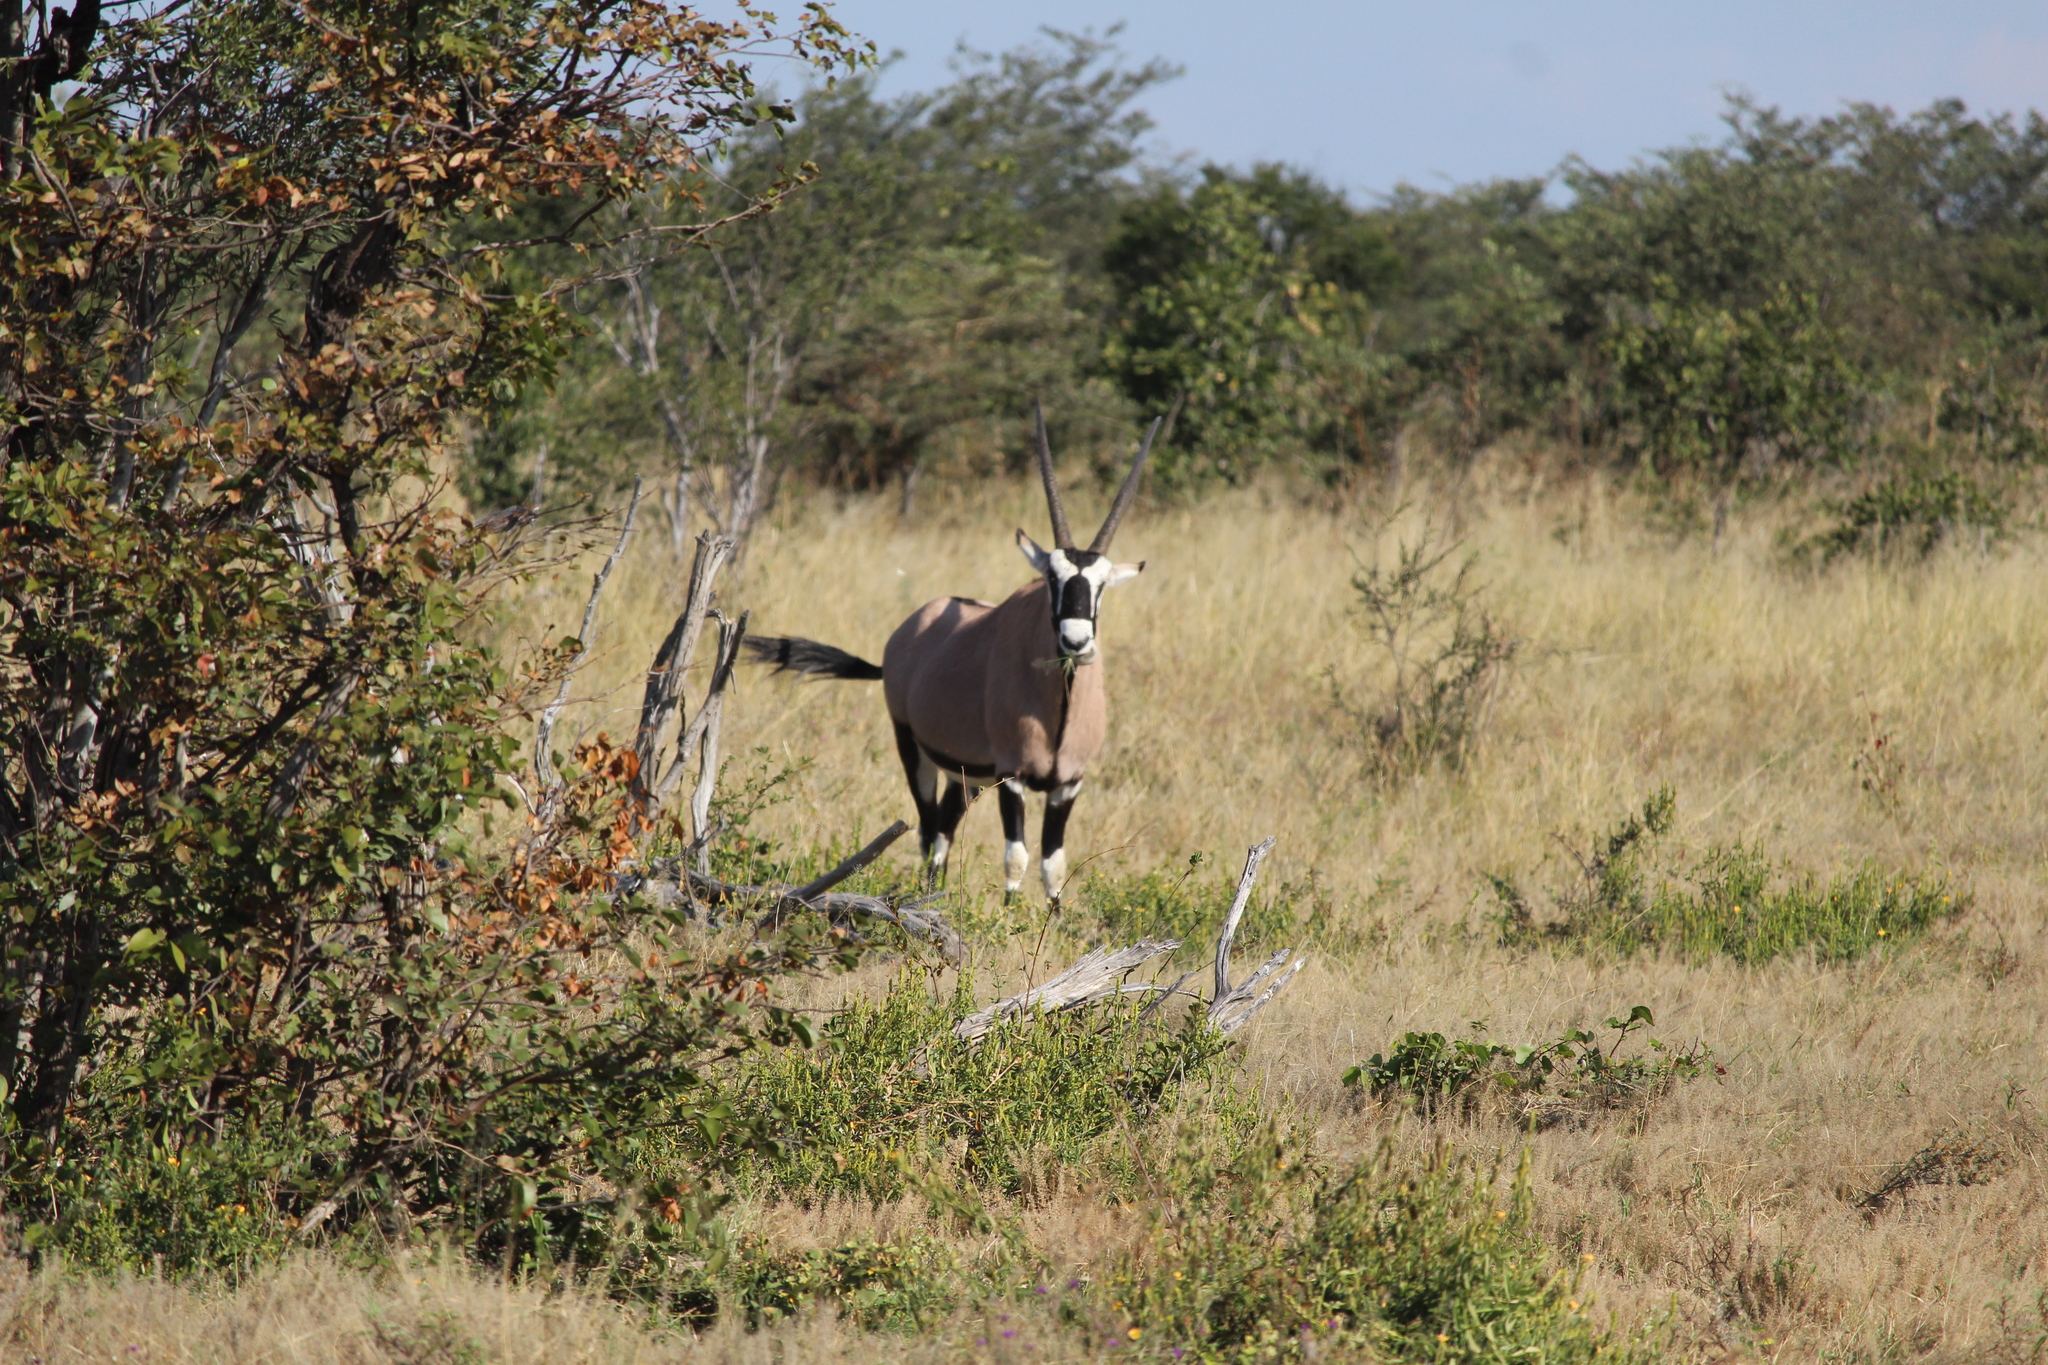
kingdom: Animalia
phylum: Chordata
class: Mammalia
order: Artiodactyla
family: Bovidae
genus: Oryx
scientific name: Oryx gazella
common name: Gemsbok
